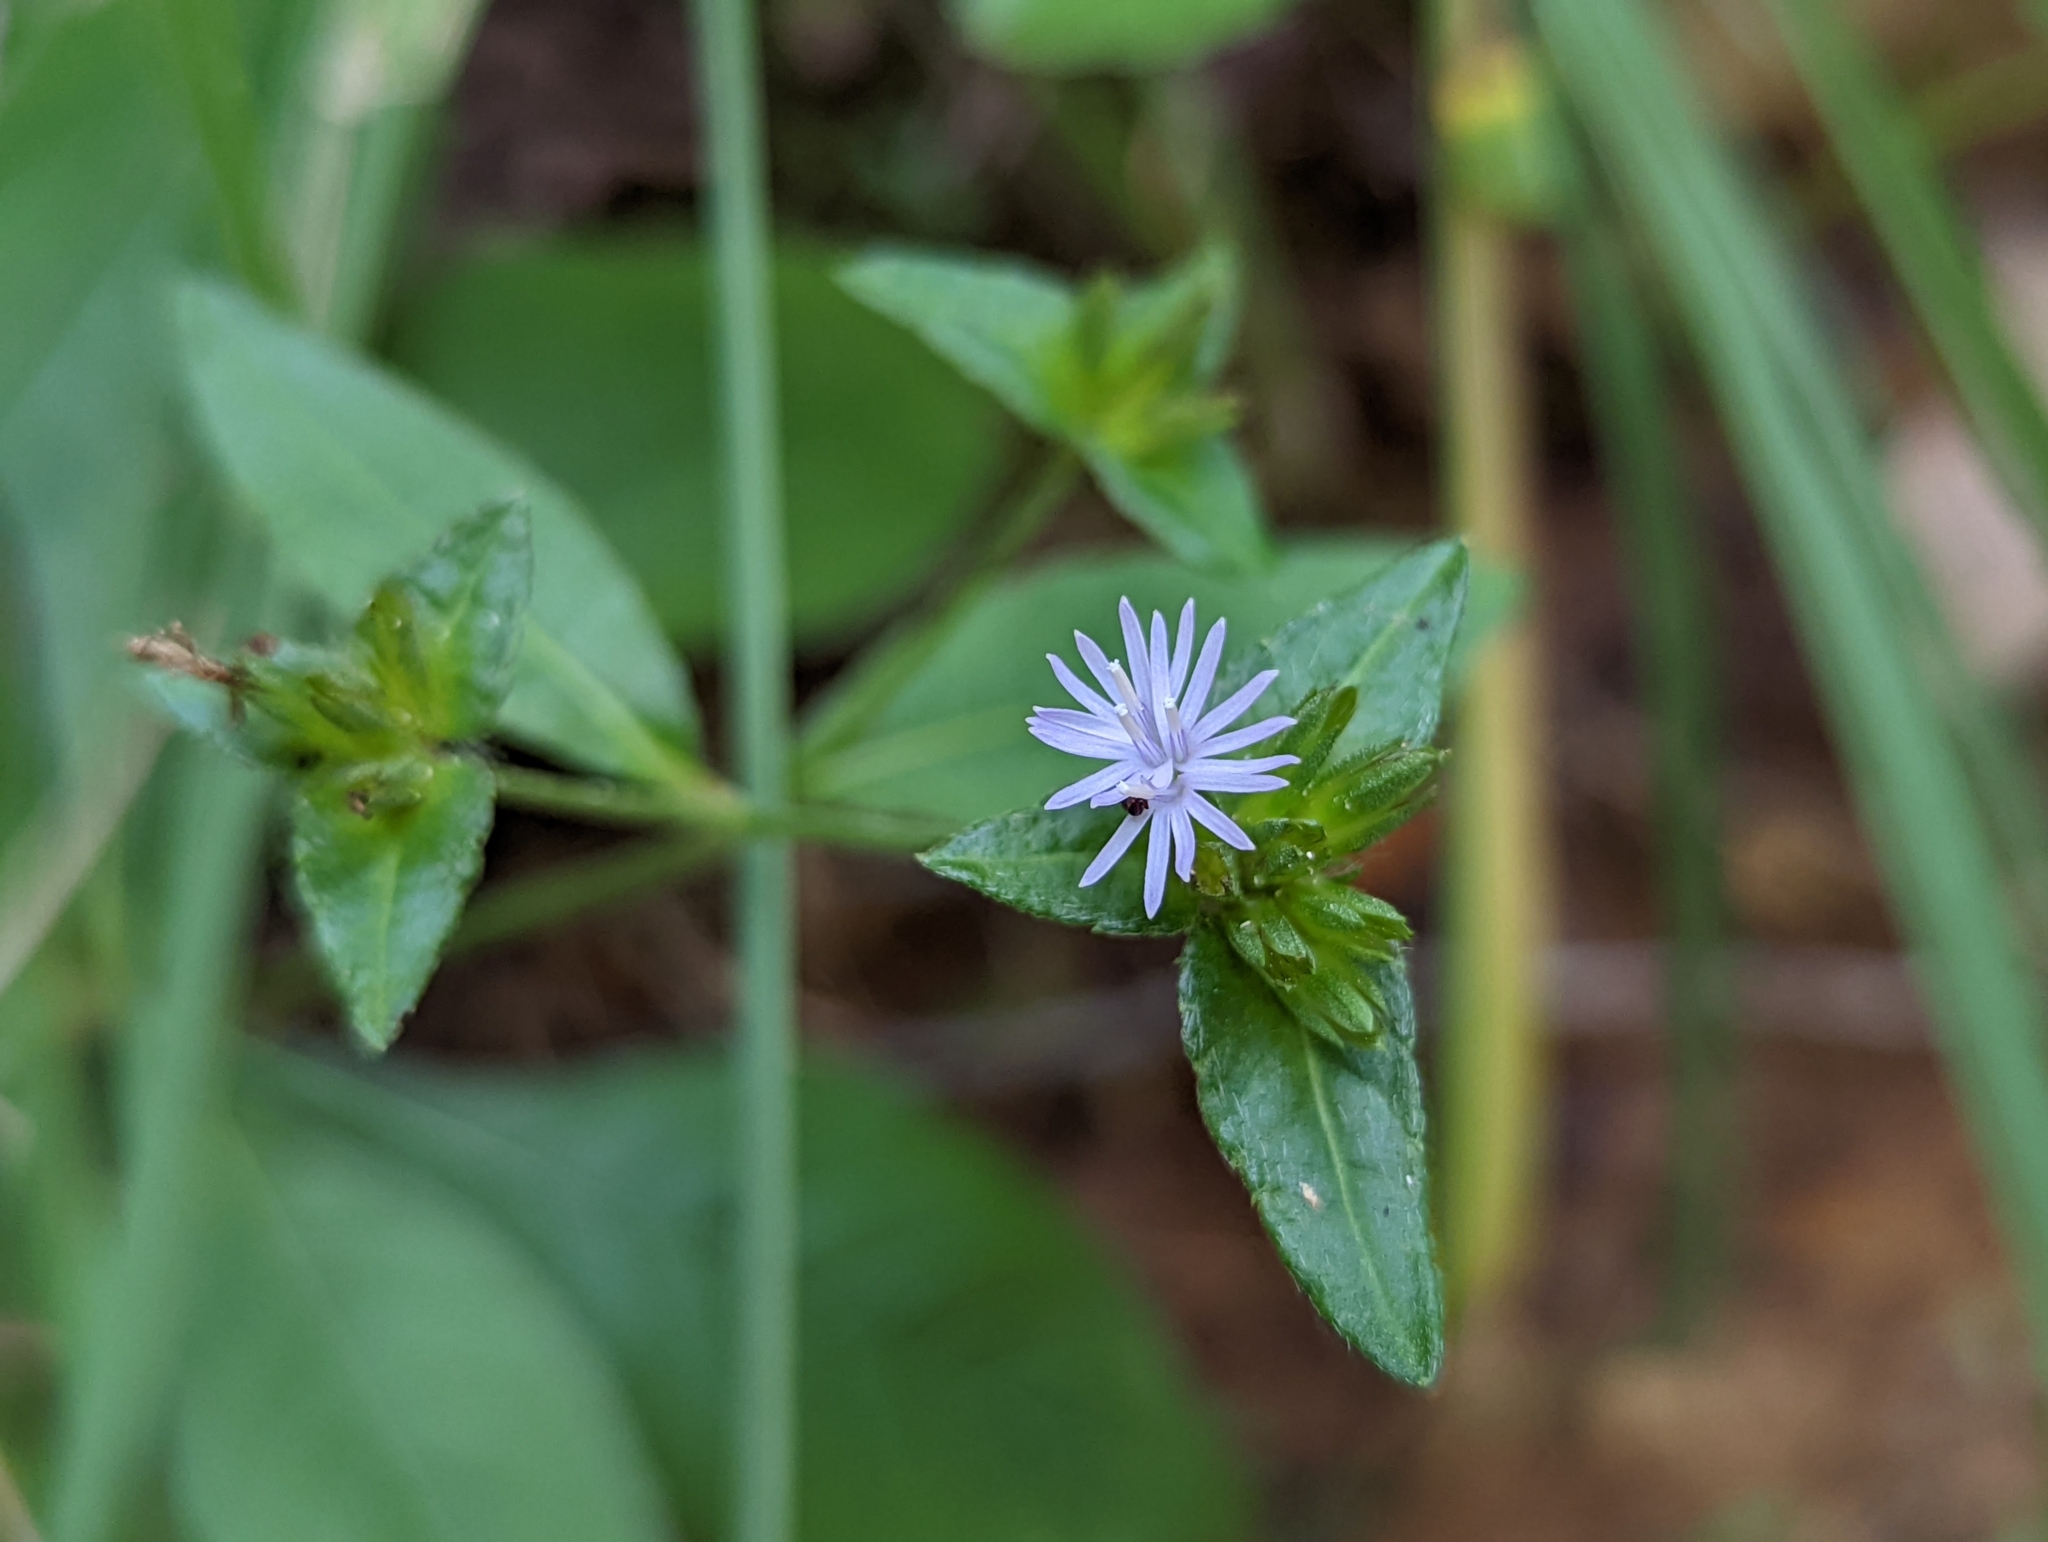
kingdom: Plantae
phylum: Tracheophyta
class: Magnoliopsida
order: Asterales
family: Asteraceae
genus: Elephantopus
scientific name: Elephantopus carolinianus
